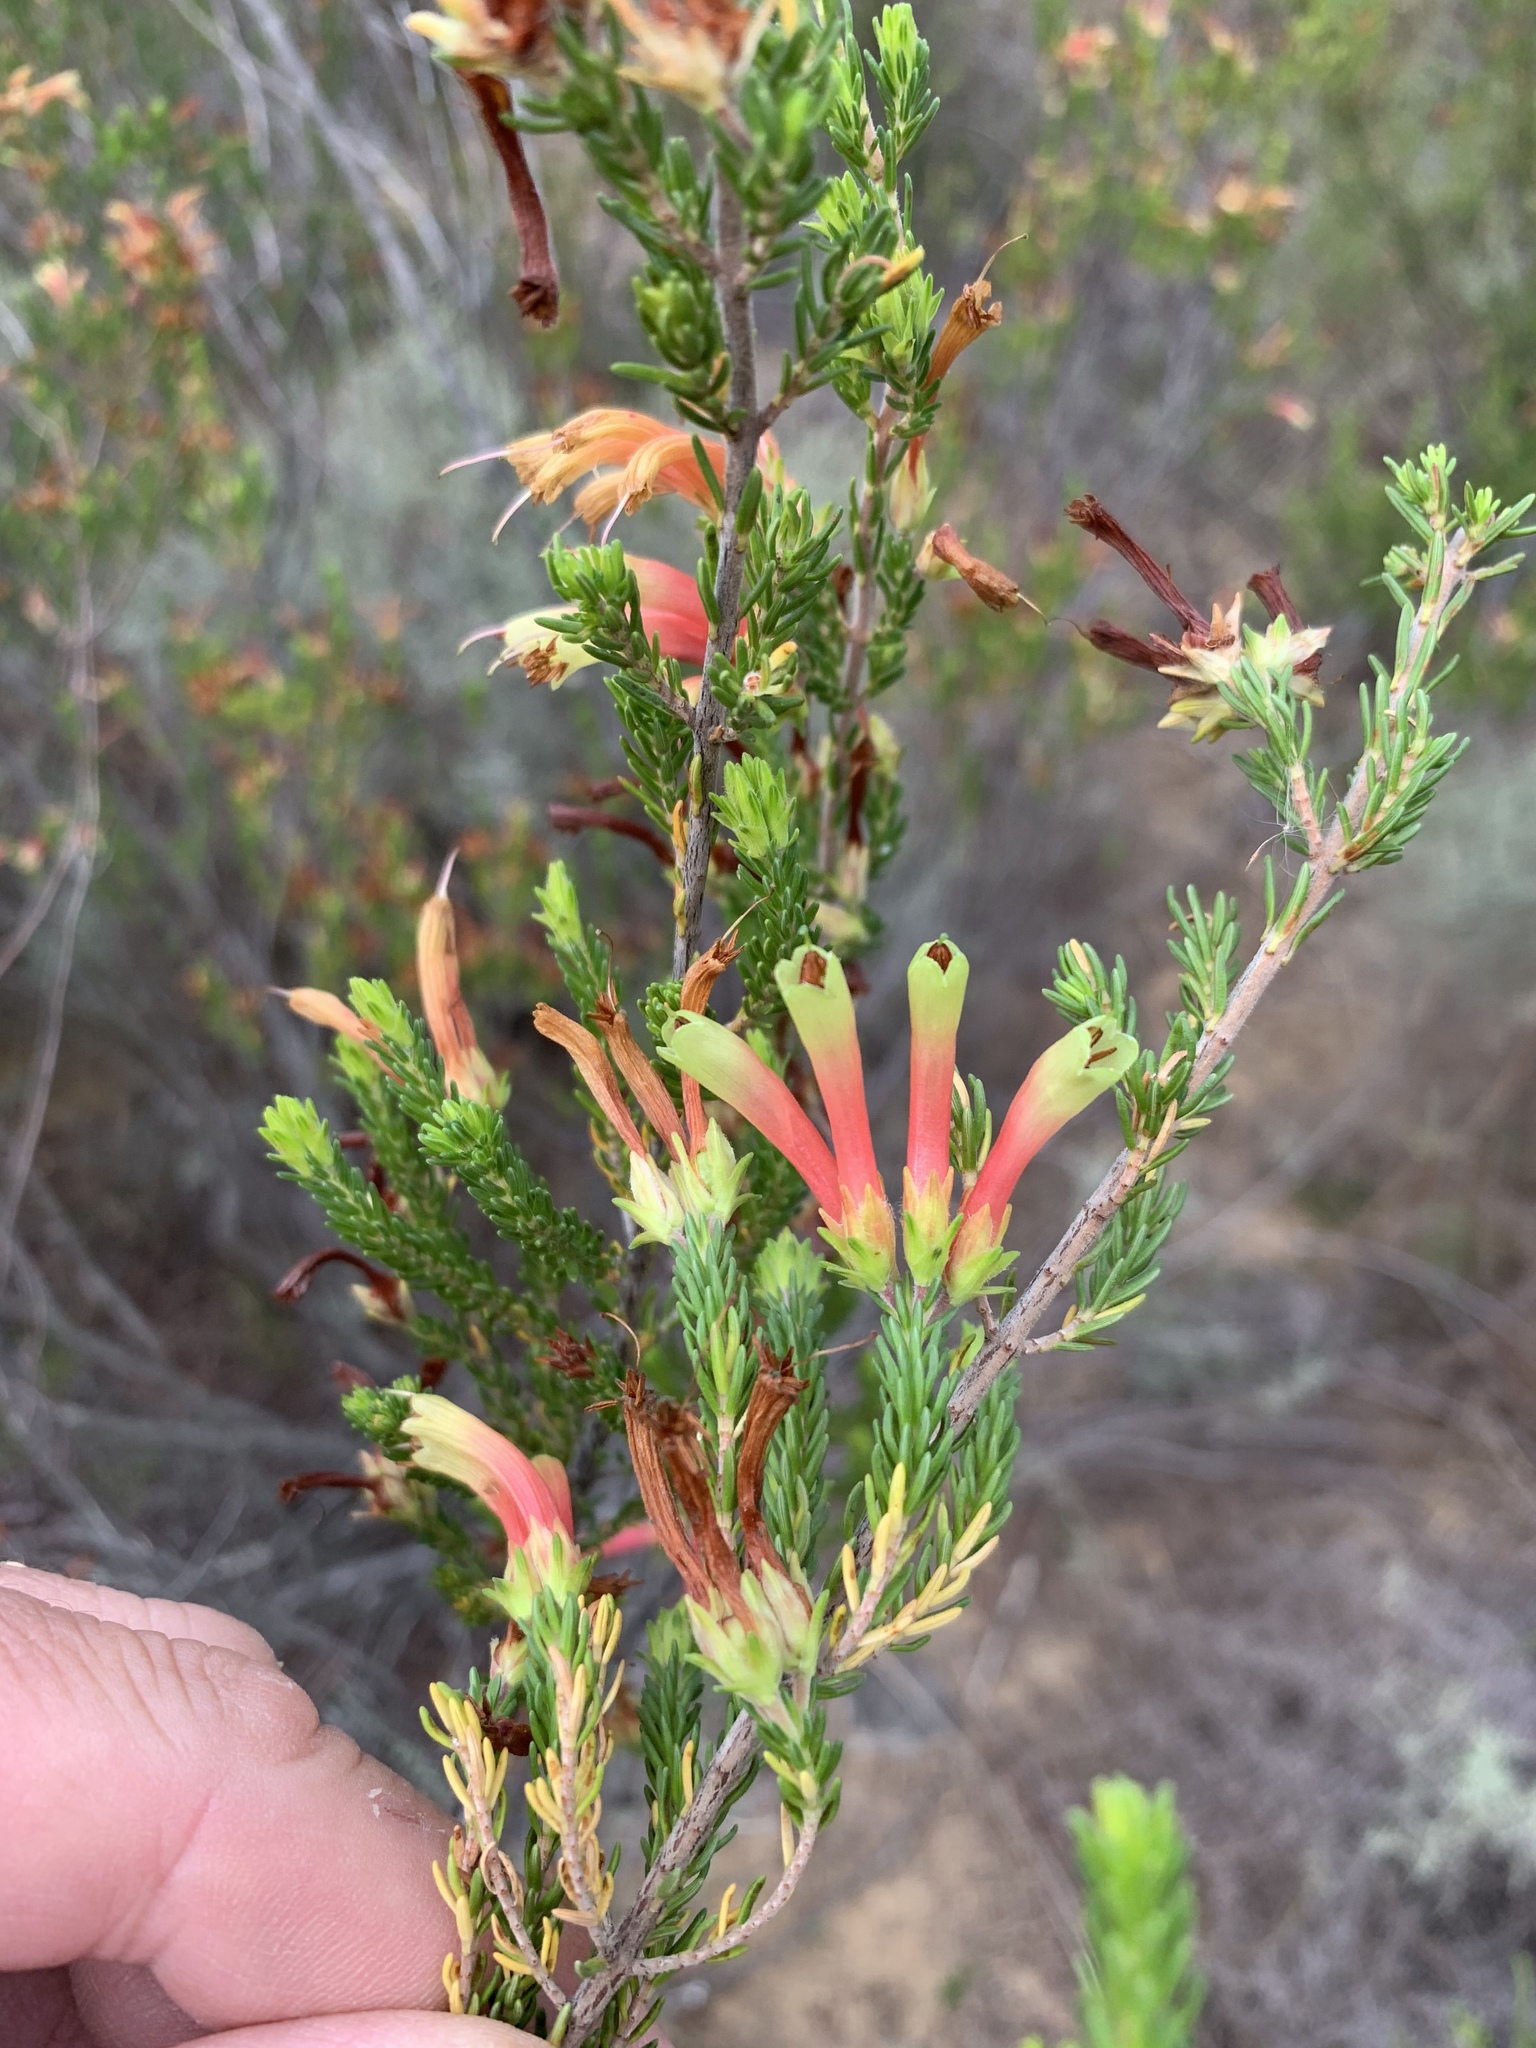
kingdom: Plantae
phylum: Tracheophyta
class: Magnoliopsida
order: Ericales
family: Ericaceae
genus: Erica
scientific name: Erica discolor
